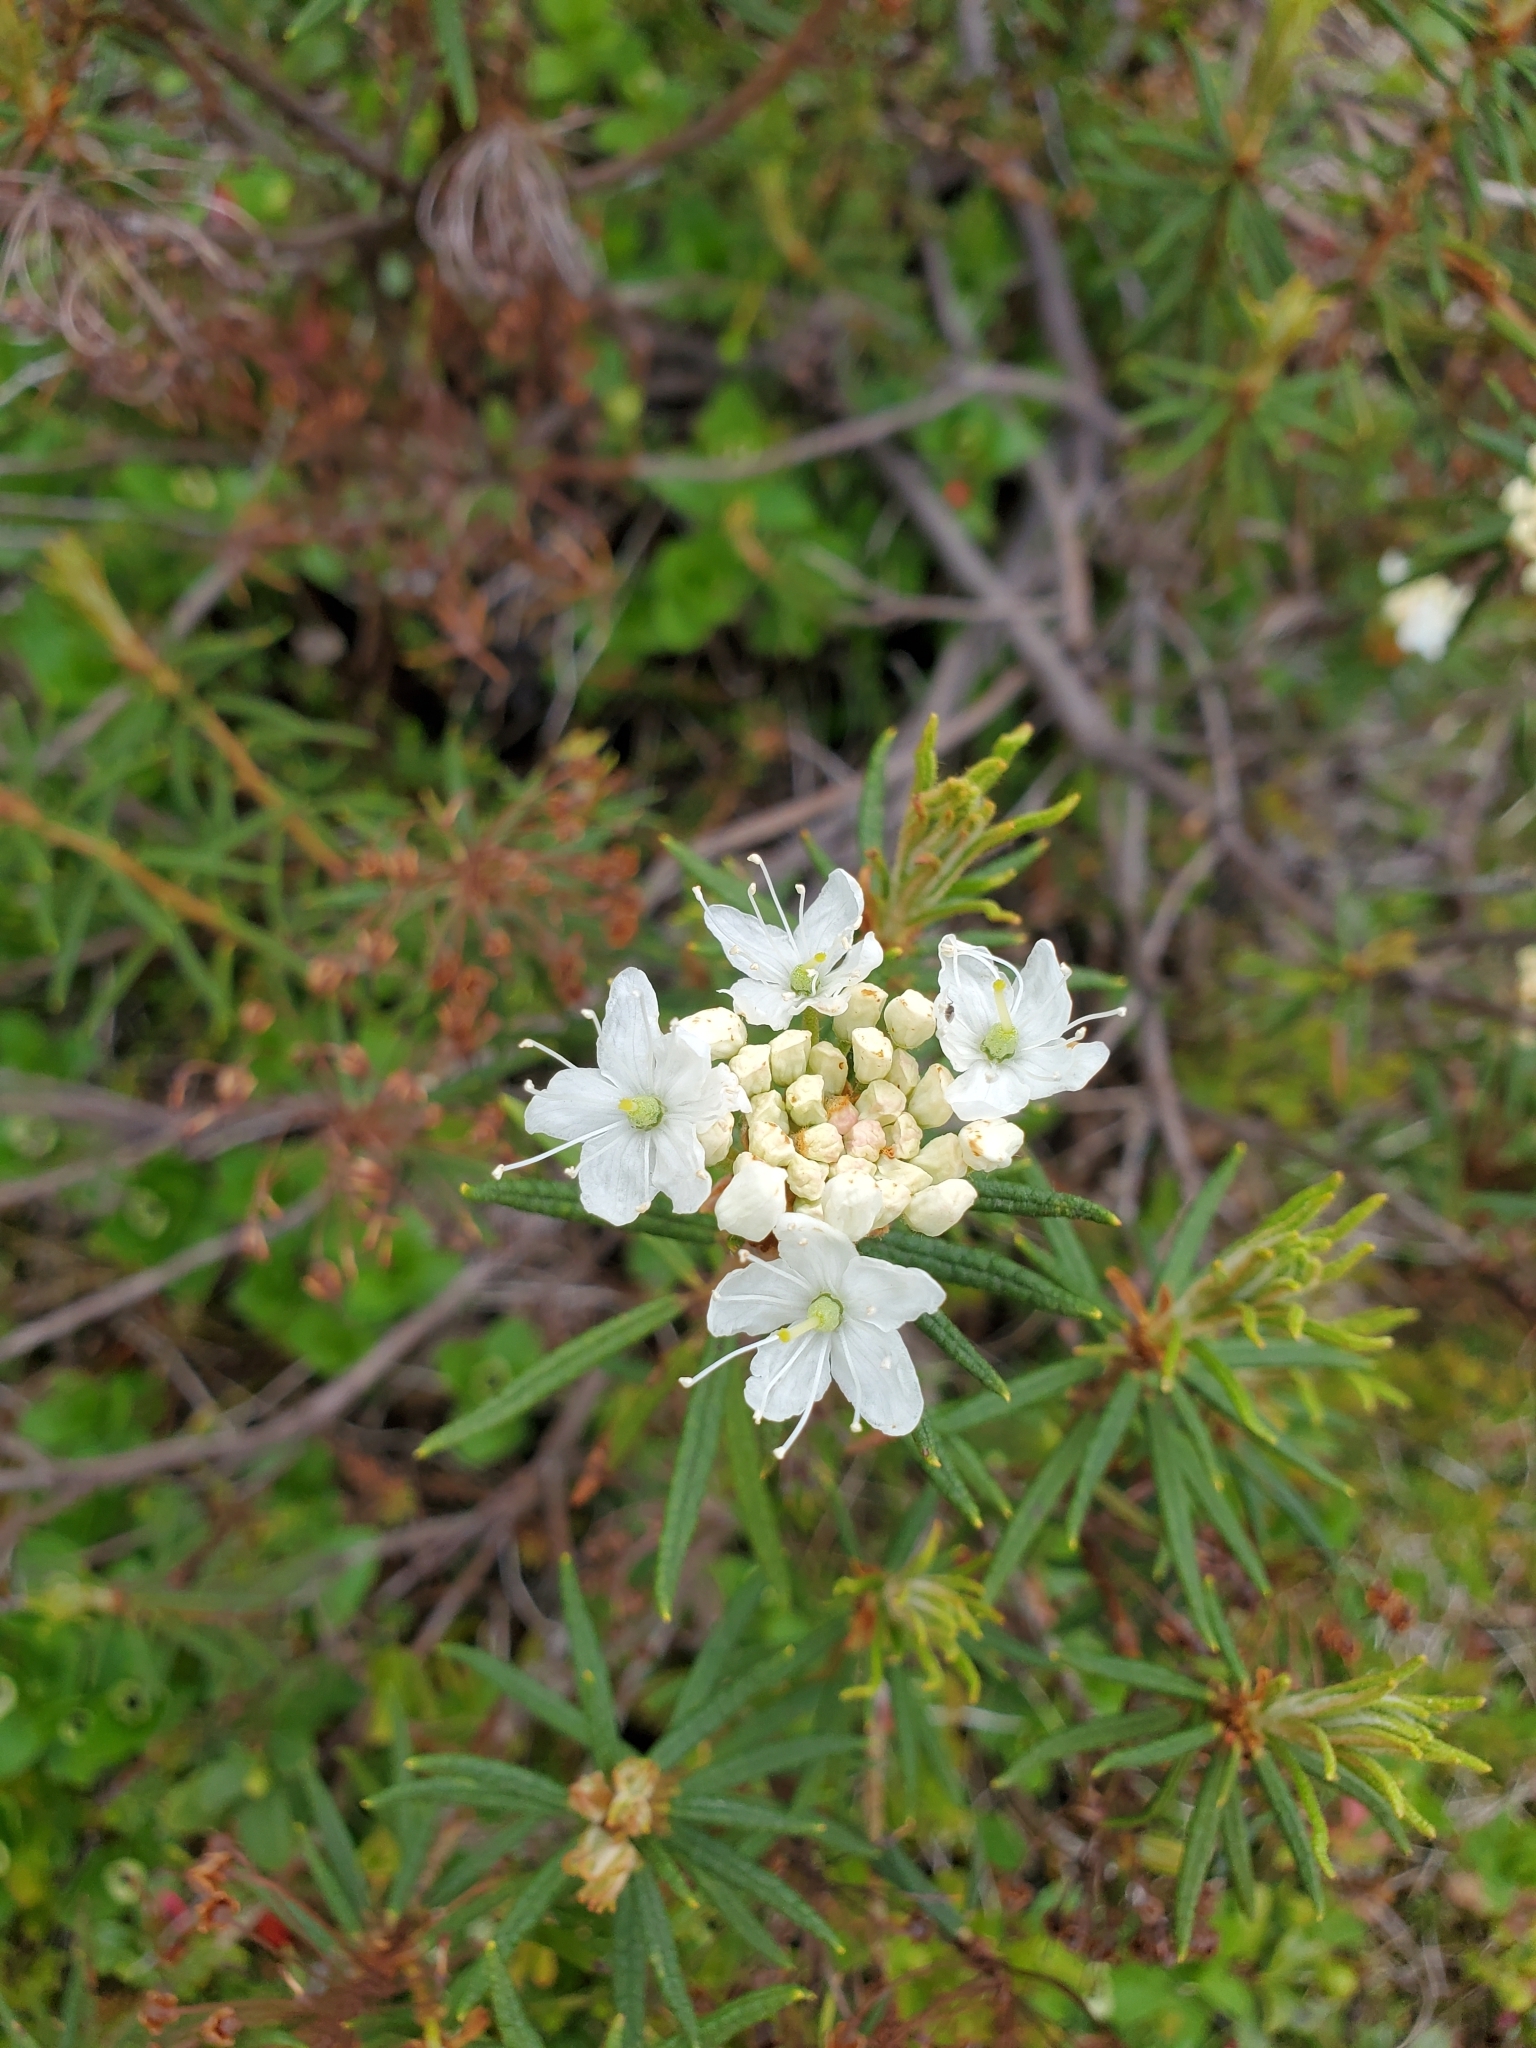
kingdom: Plantae
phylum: Tracheophyta
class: Magnoliopsida
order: Ericales
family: Ericaceae
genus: Rhododendron
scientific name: Rhododendron tomentosum
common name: Marsh labrador tea
